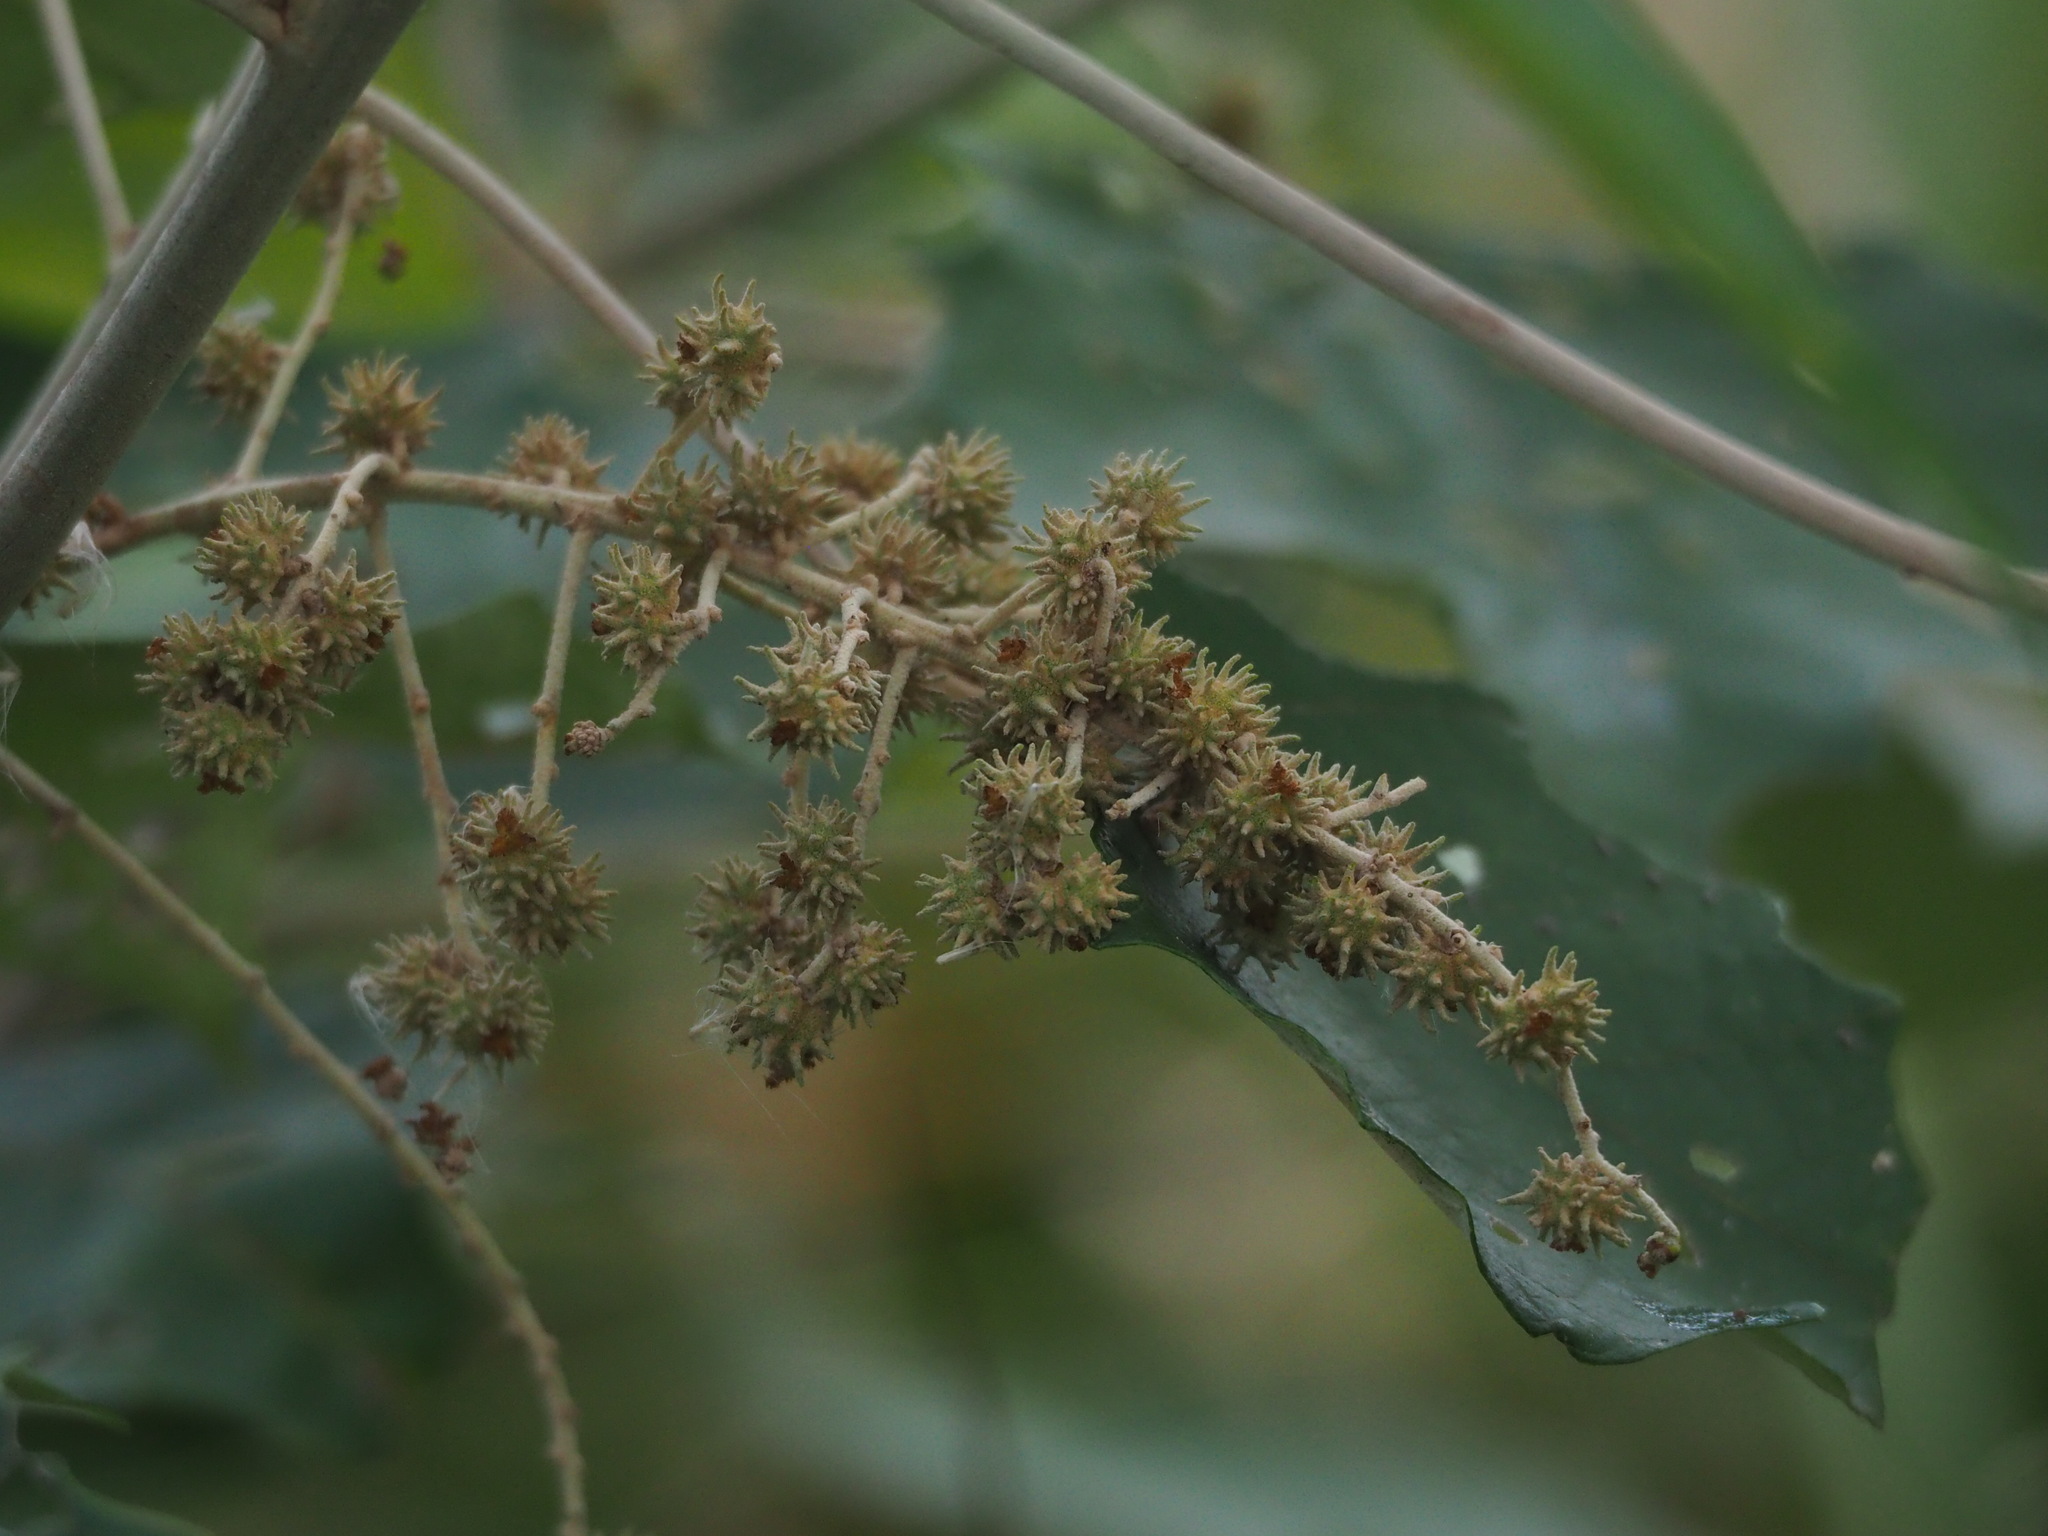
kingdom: Plantae
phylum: Tracheophyta
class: Magnoliopsida
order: Malpighiales
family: Euphorbiaceae
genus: Mallotus
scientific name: Mallotus paniculatus
